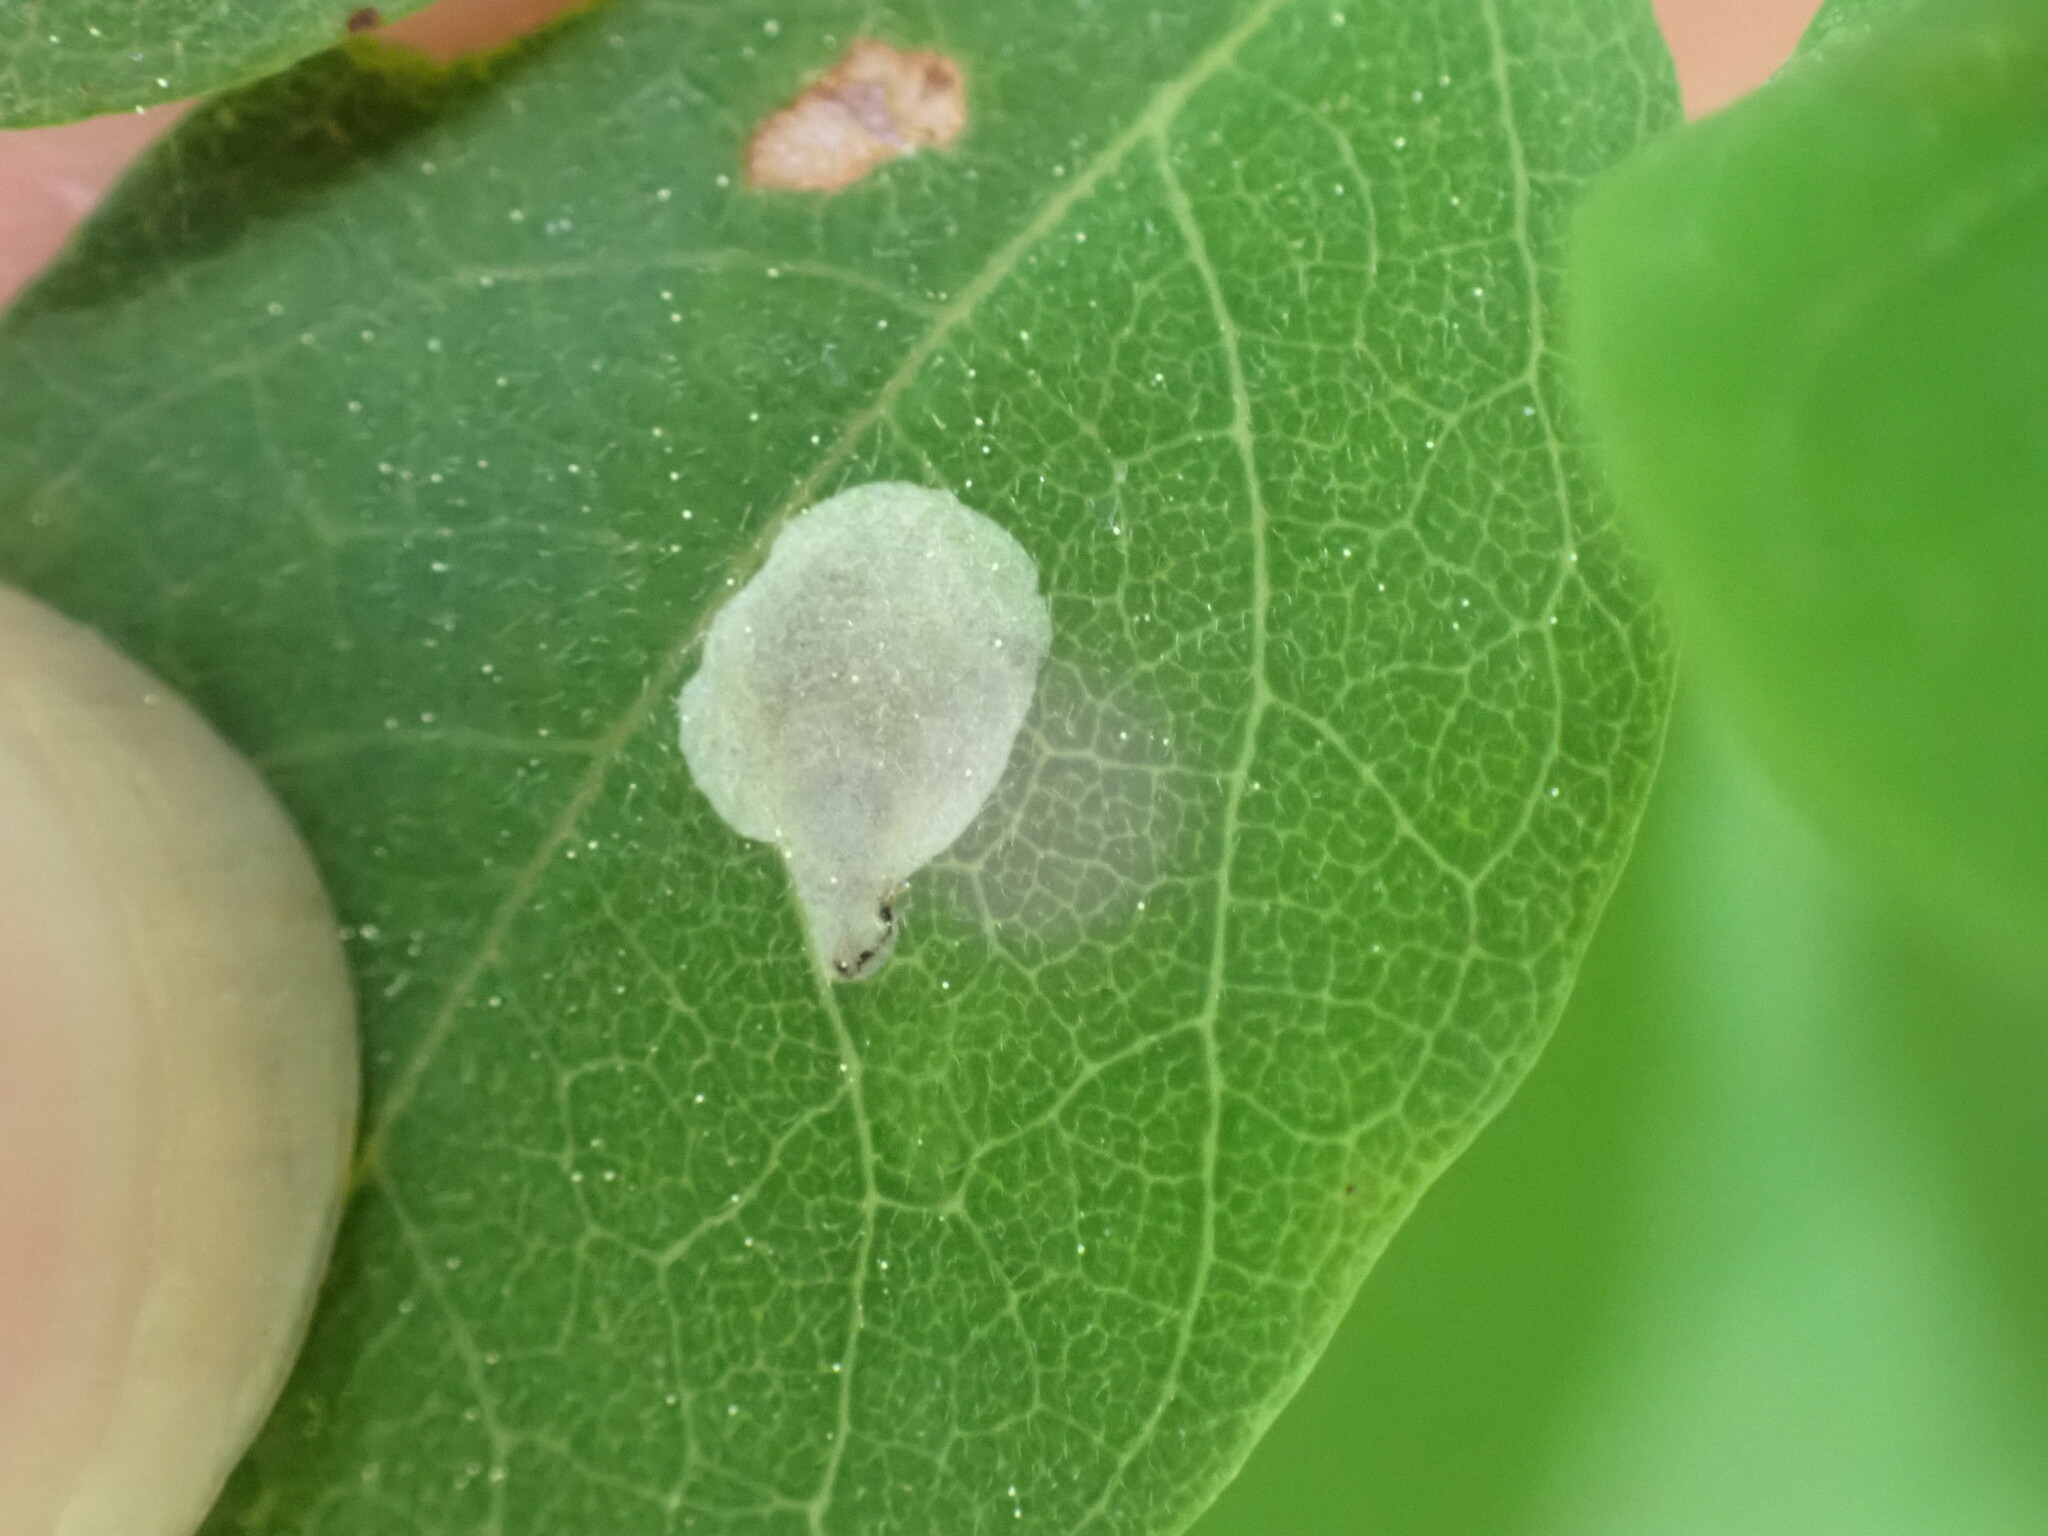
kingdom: Animalia
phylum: Arthropoda
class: Insecta
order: Lepidoptera
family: Gracillariidae
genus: Chrysaster
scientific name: Chrysaster ostensackenella
